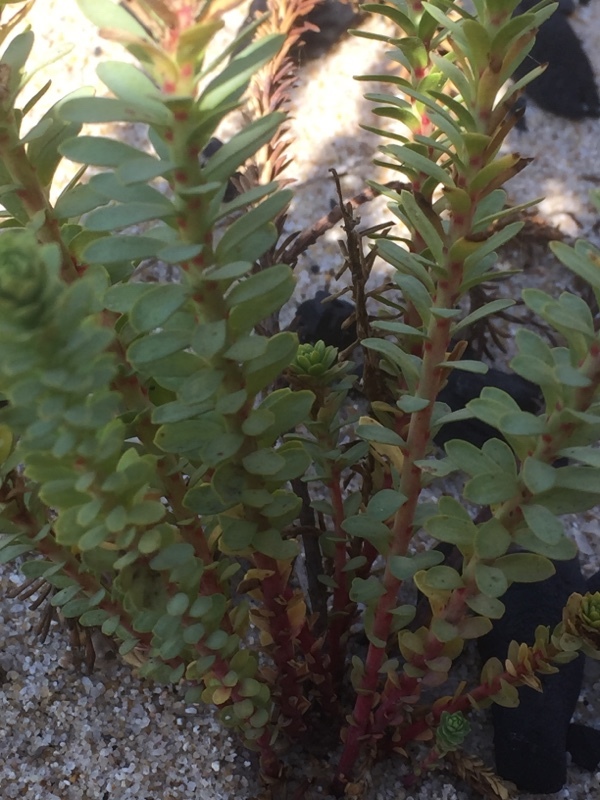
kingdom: Plantae
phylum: Tracheophyta
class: Magnoliopsida
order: Malpighiales
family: Euphorbiaceae
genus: Euphorbia
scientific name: Euphorbia paralias
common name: Sea spurge
